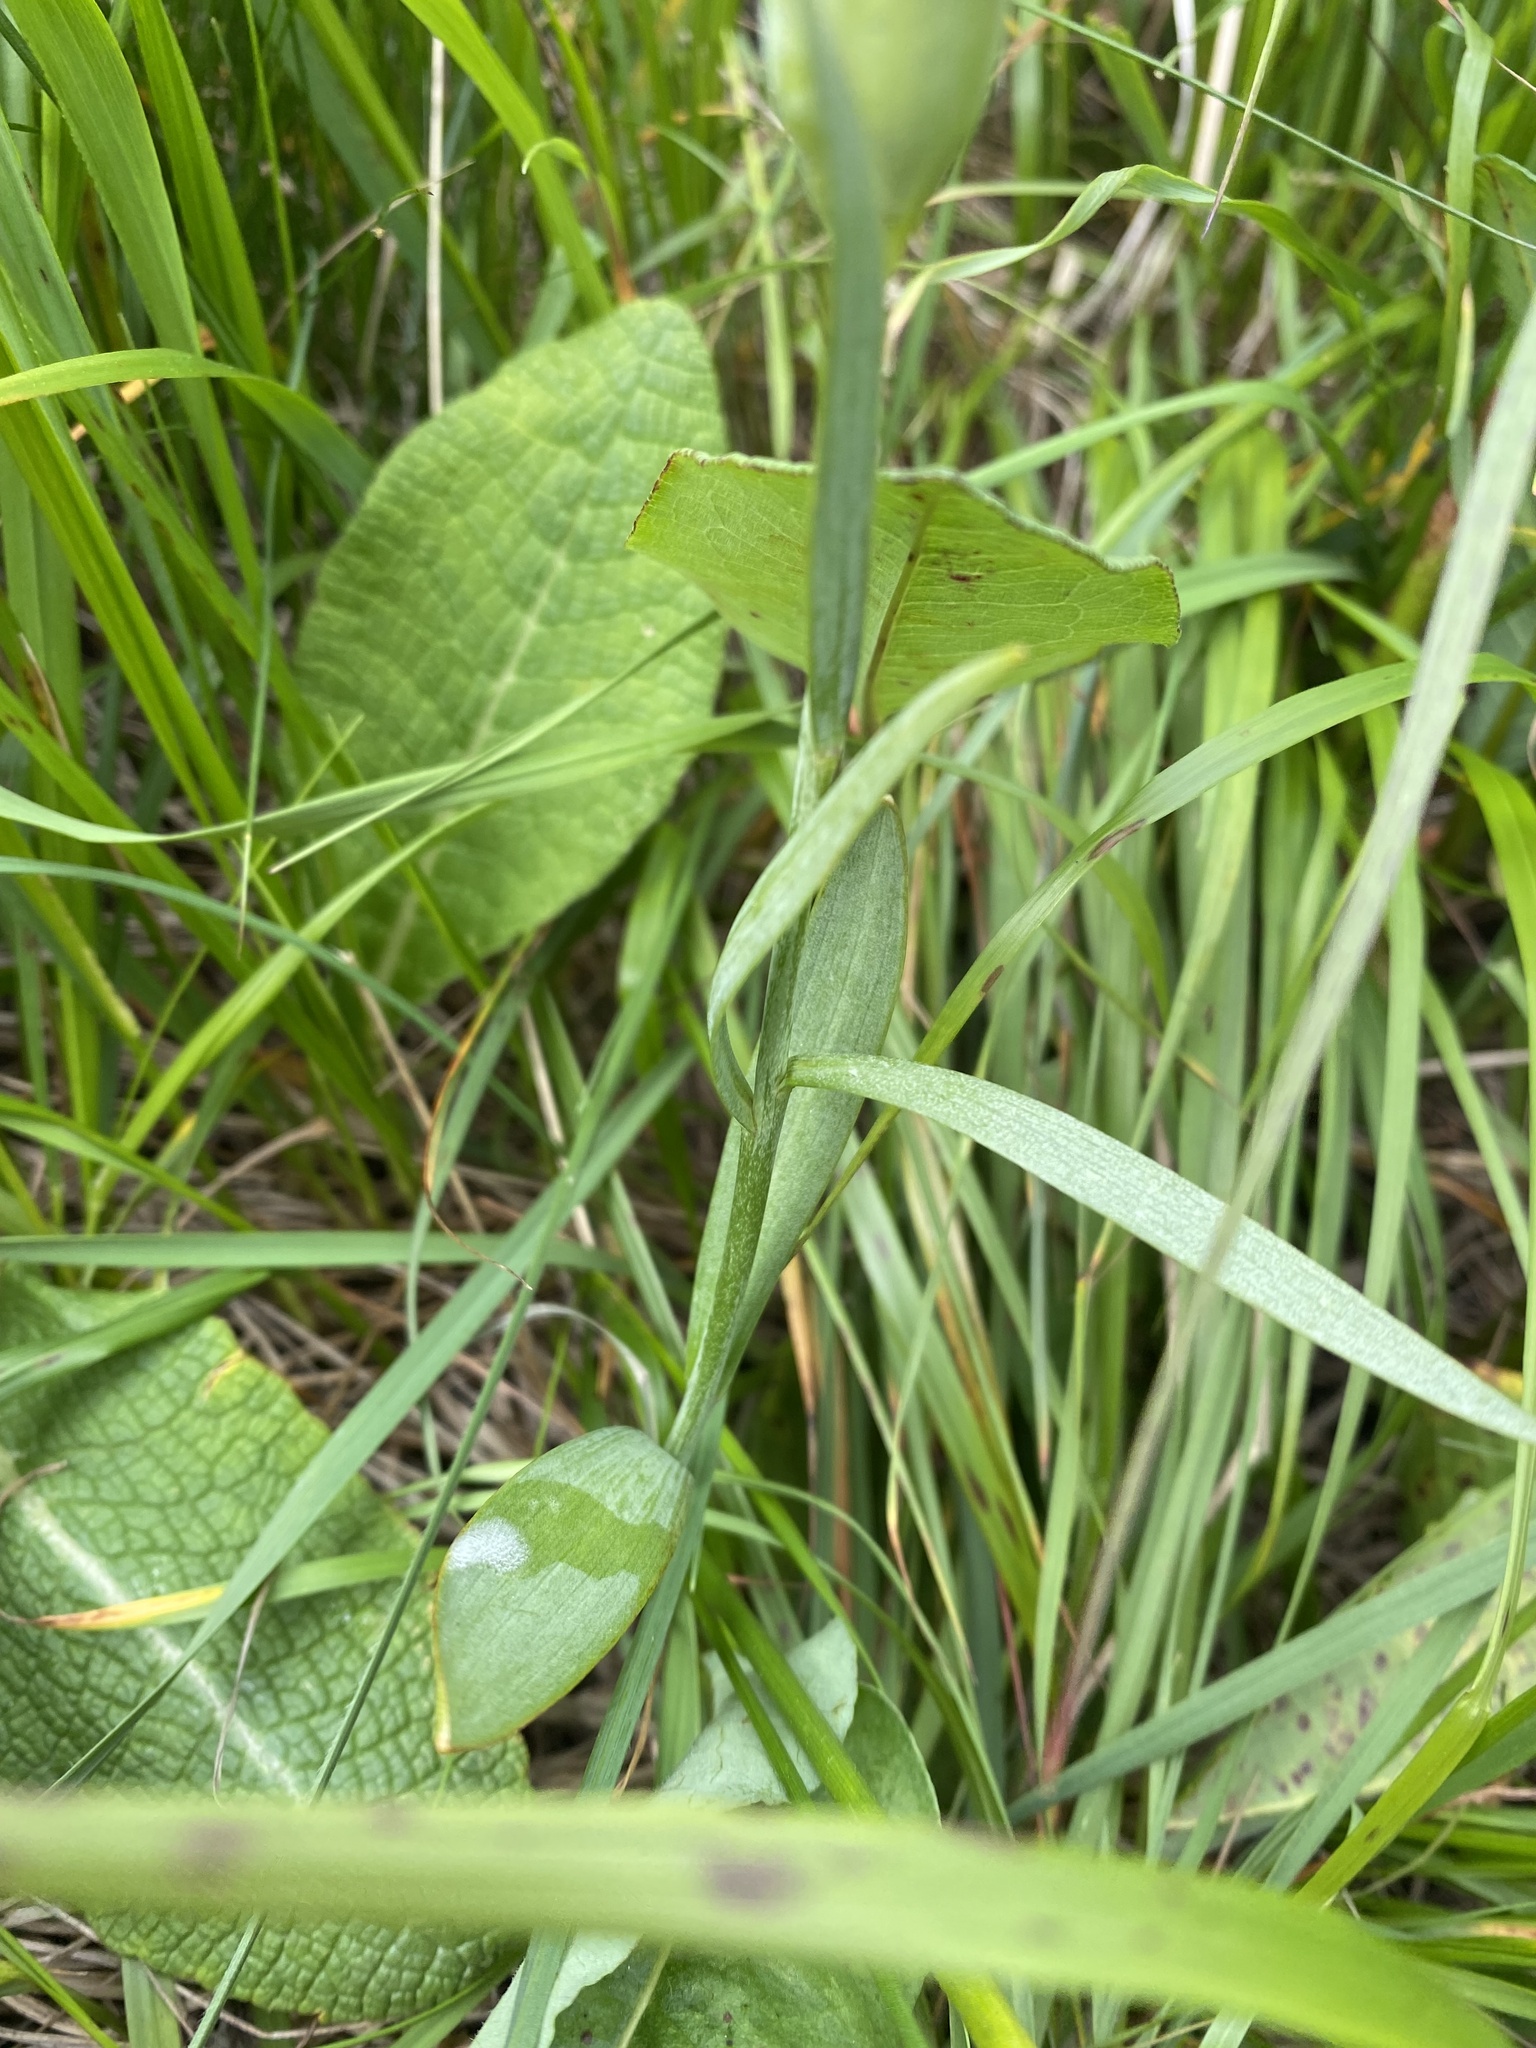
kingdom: Plantae
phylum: Tracheophyta
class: Liliopsida
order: Liliales
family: Liliaceae
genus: Fritillaria
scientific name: Fritillaria collina
